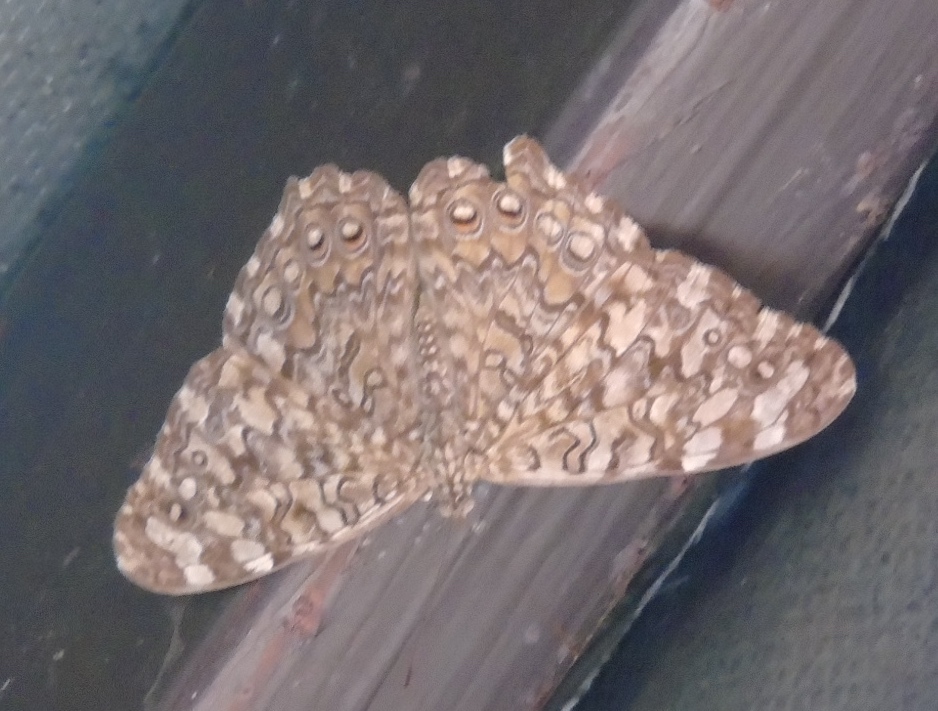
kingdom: Animalia
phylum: Arthropoda
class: Insecta
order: Lepidoptera
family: Nymphalidae
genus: Hamadryas
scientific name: Hamadryas februa
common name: Gray cracker
